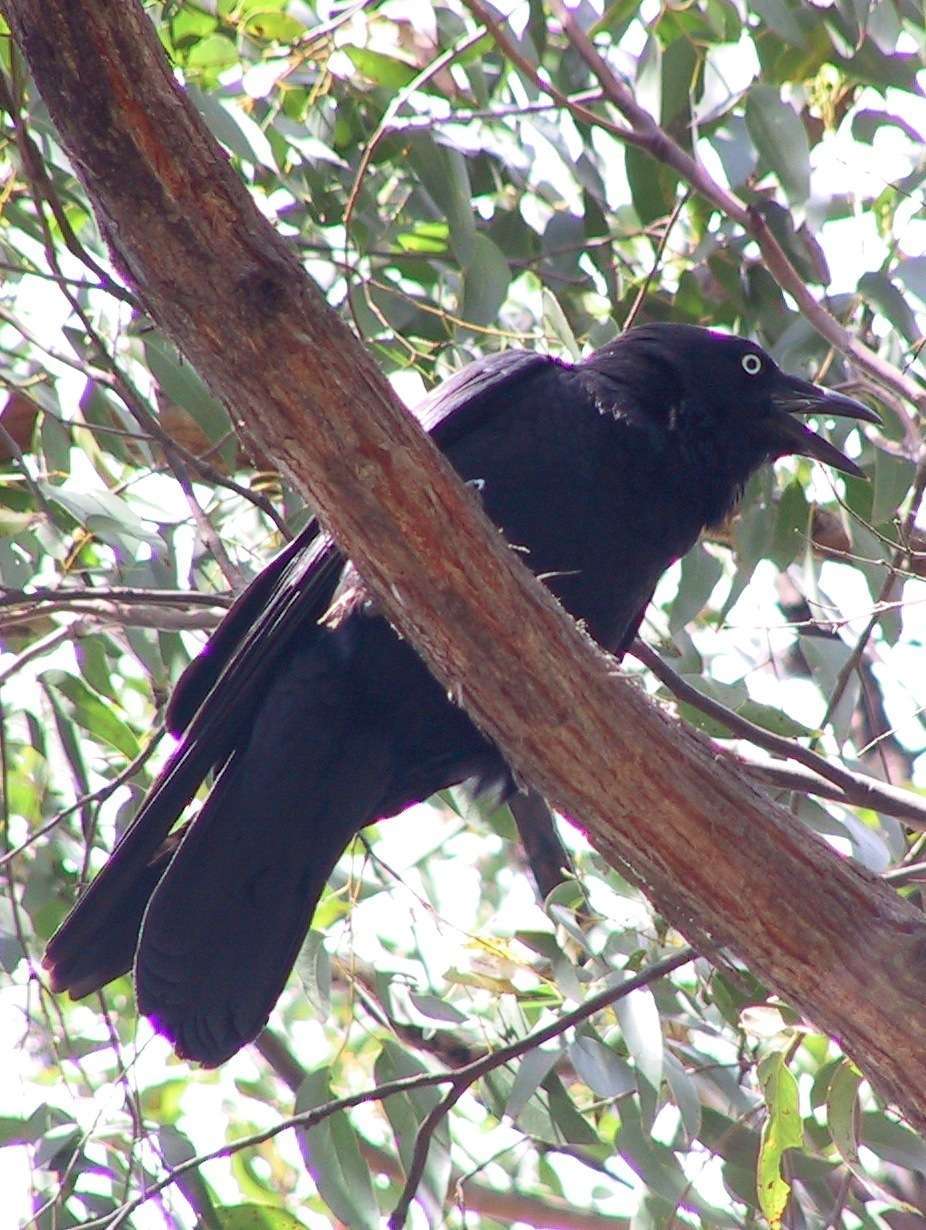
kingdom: Animalia
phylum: Chordata
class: Aves
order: Passeriformes
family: Corvidae
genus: Corvus
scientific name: Corvus mellori
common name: Little raven
